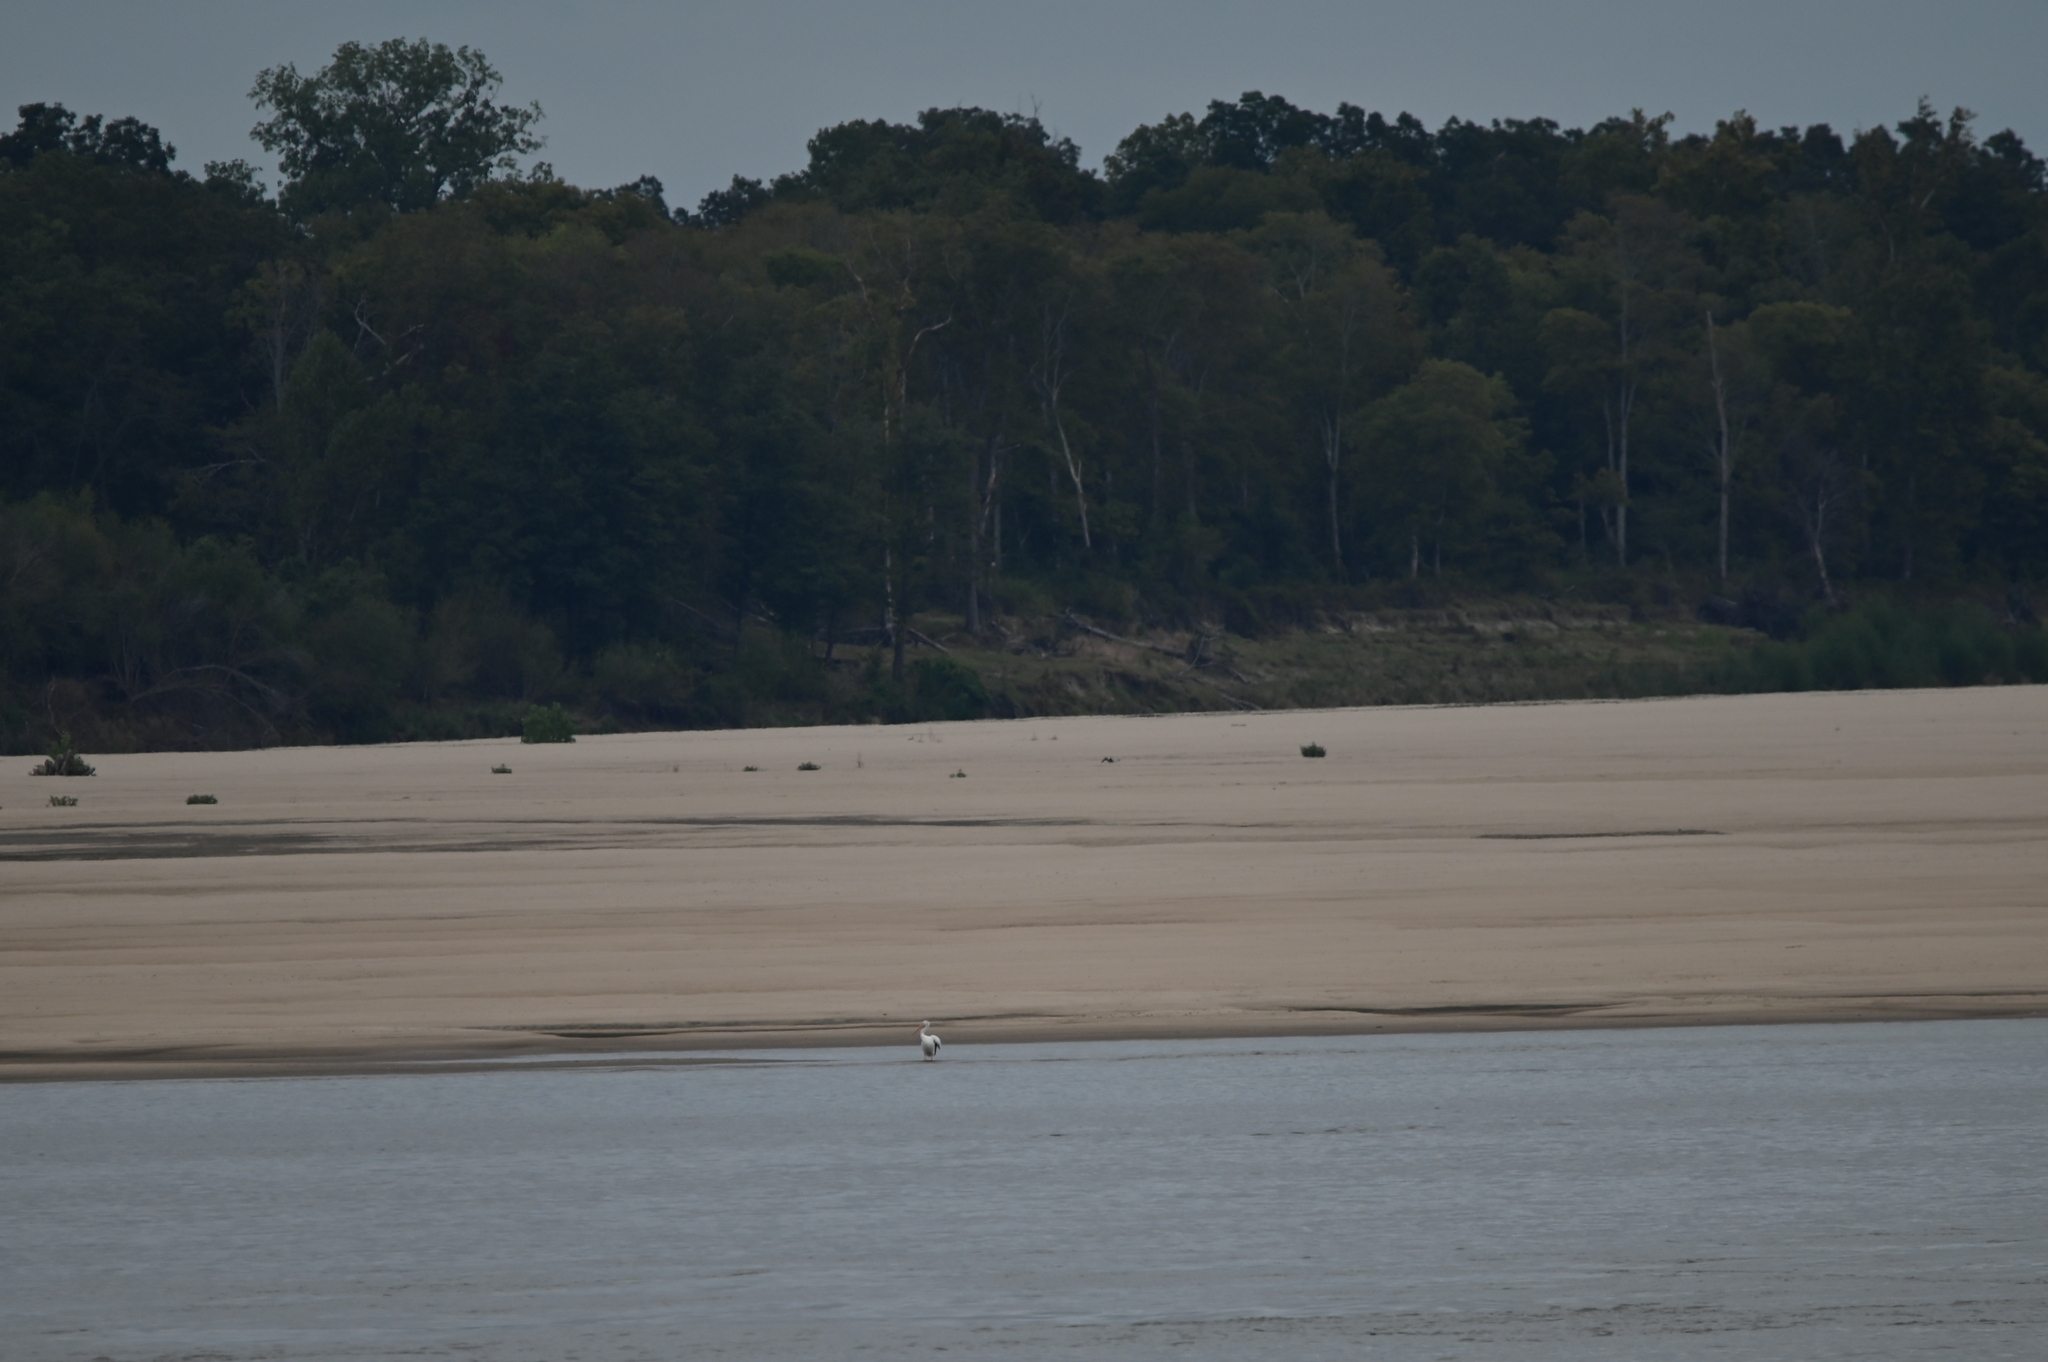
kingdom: Animalia
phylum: Chordata
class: Aves
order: Pelecaniformes
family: Pelecanidae
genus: Pelecanus
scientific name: Pelecanus erythrorhynchos
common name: American white pelican
